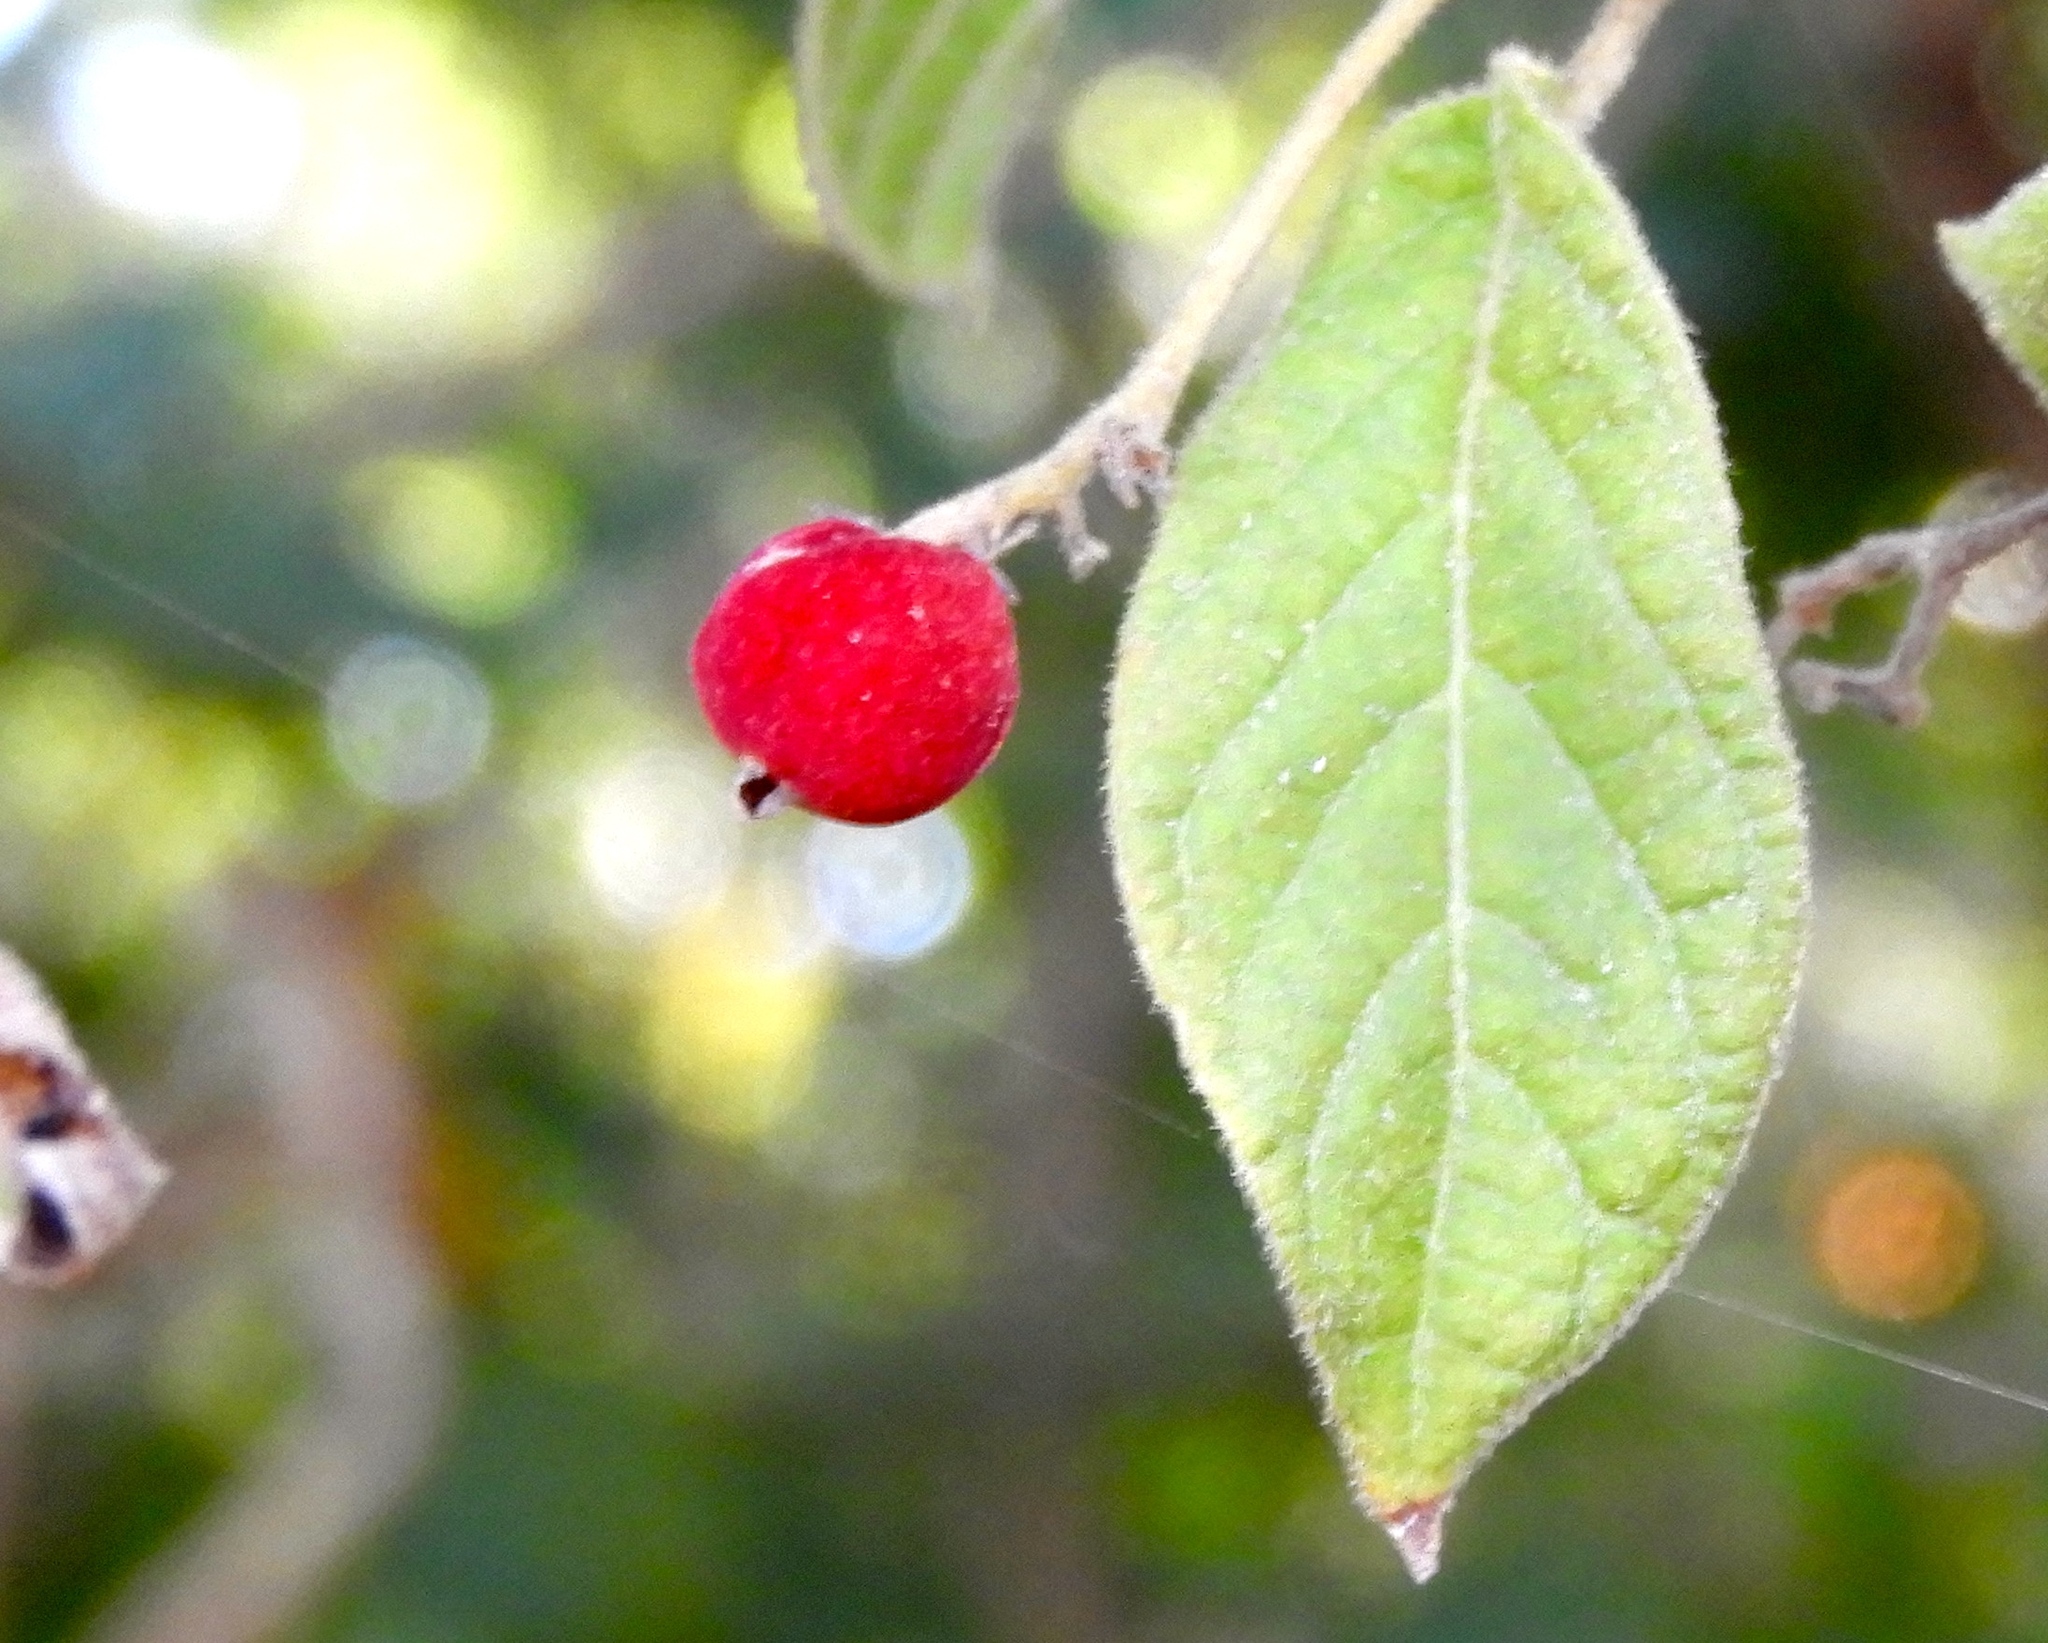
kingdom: Plantae
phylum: Tracheophyta
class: Magnoliopsida
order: Gentianales
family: Rubiaceae
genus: Guettarda
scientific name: Guettarda elliptica
